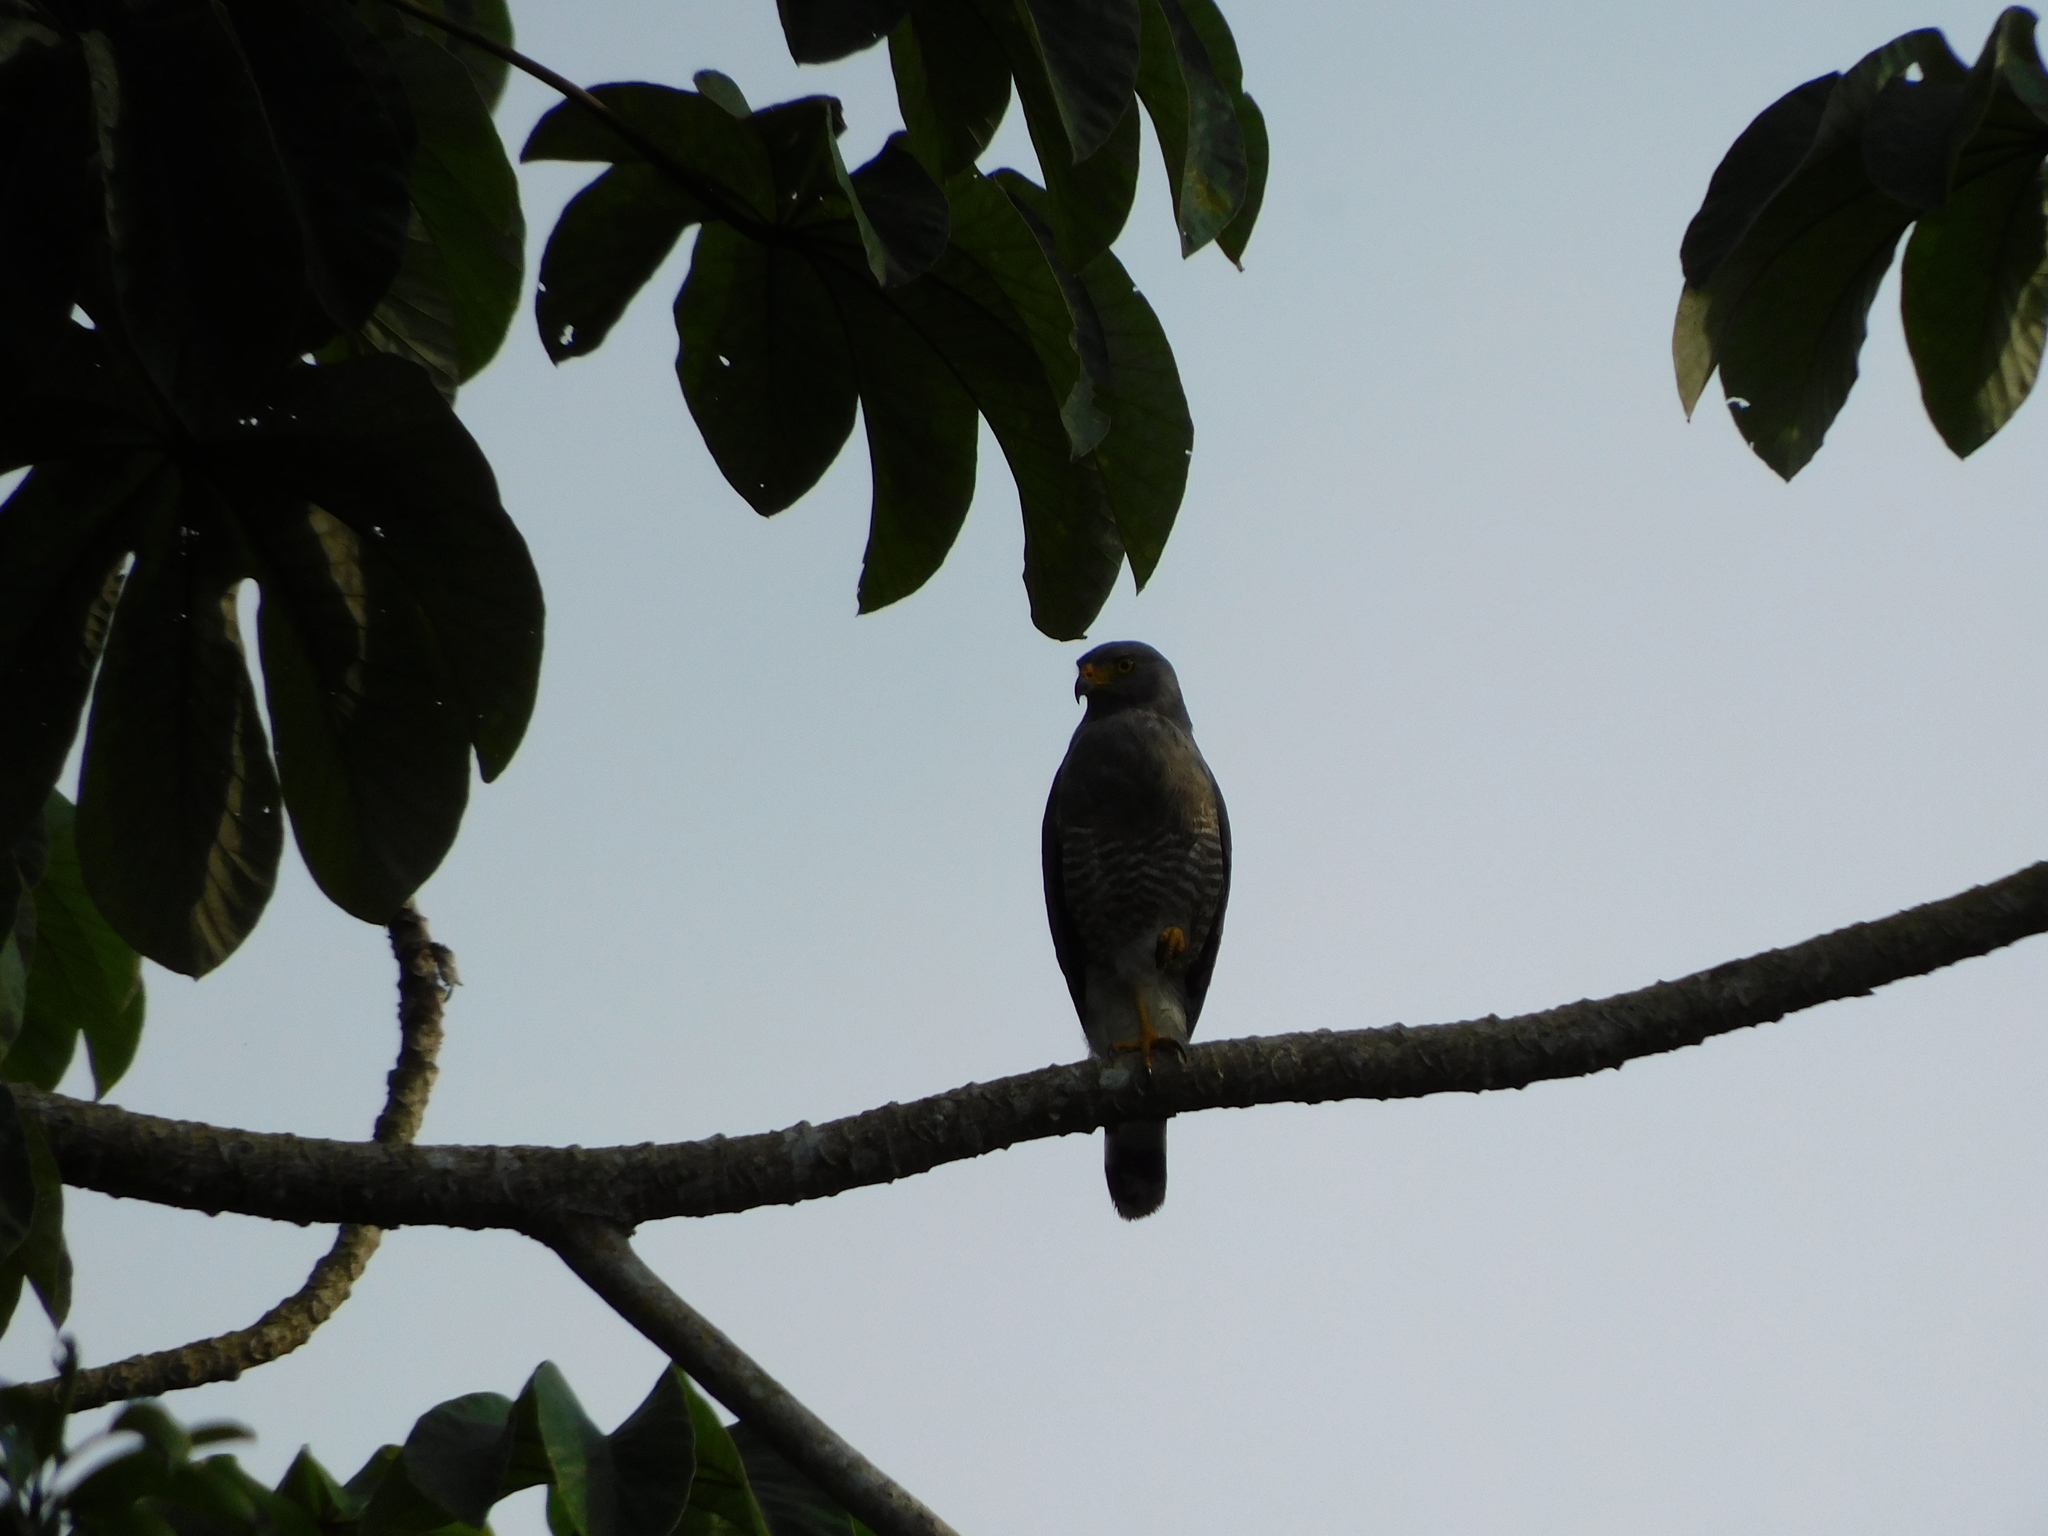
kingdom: Animalia
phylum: Chordata
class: Aves
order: Accipitriformes
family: Accipitridae
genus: Rupornis
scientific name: Rupornis magnirostris
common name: Roadside hawk
